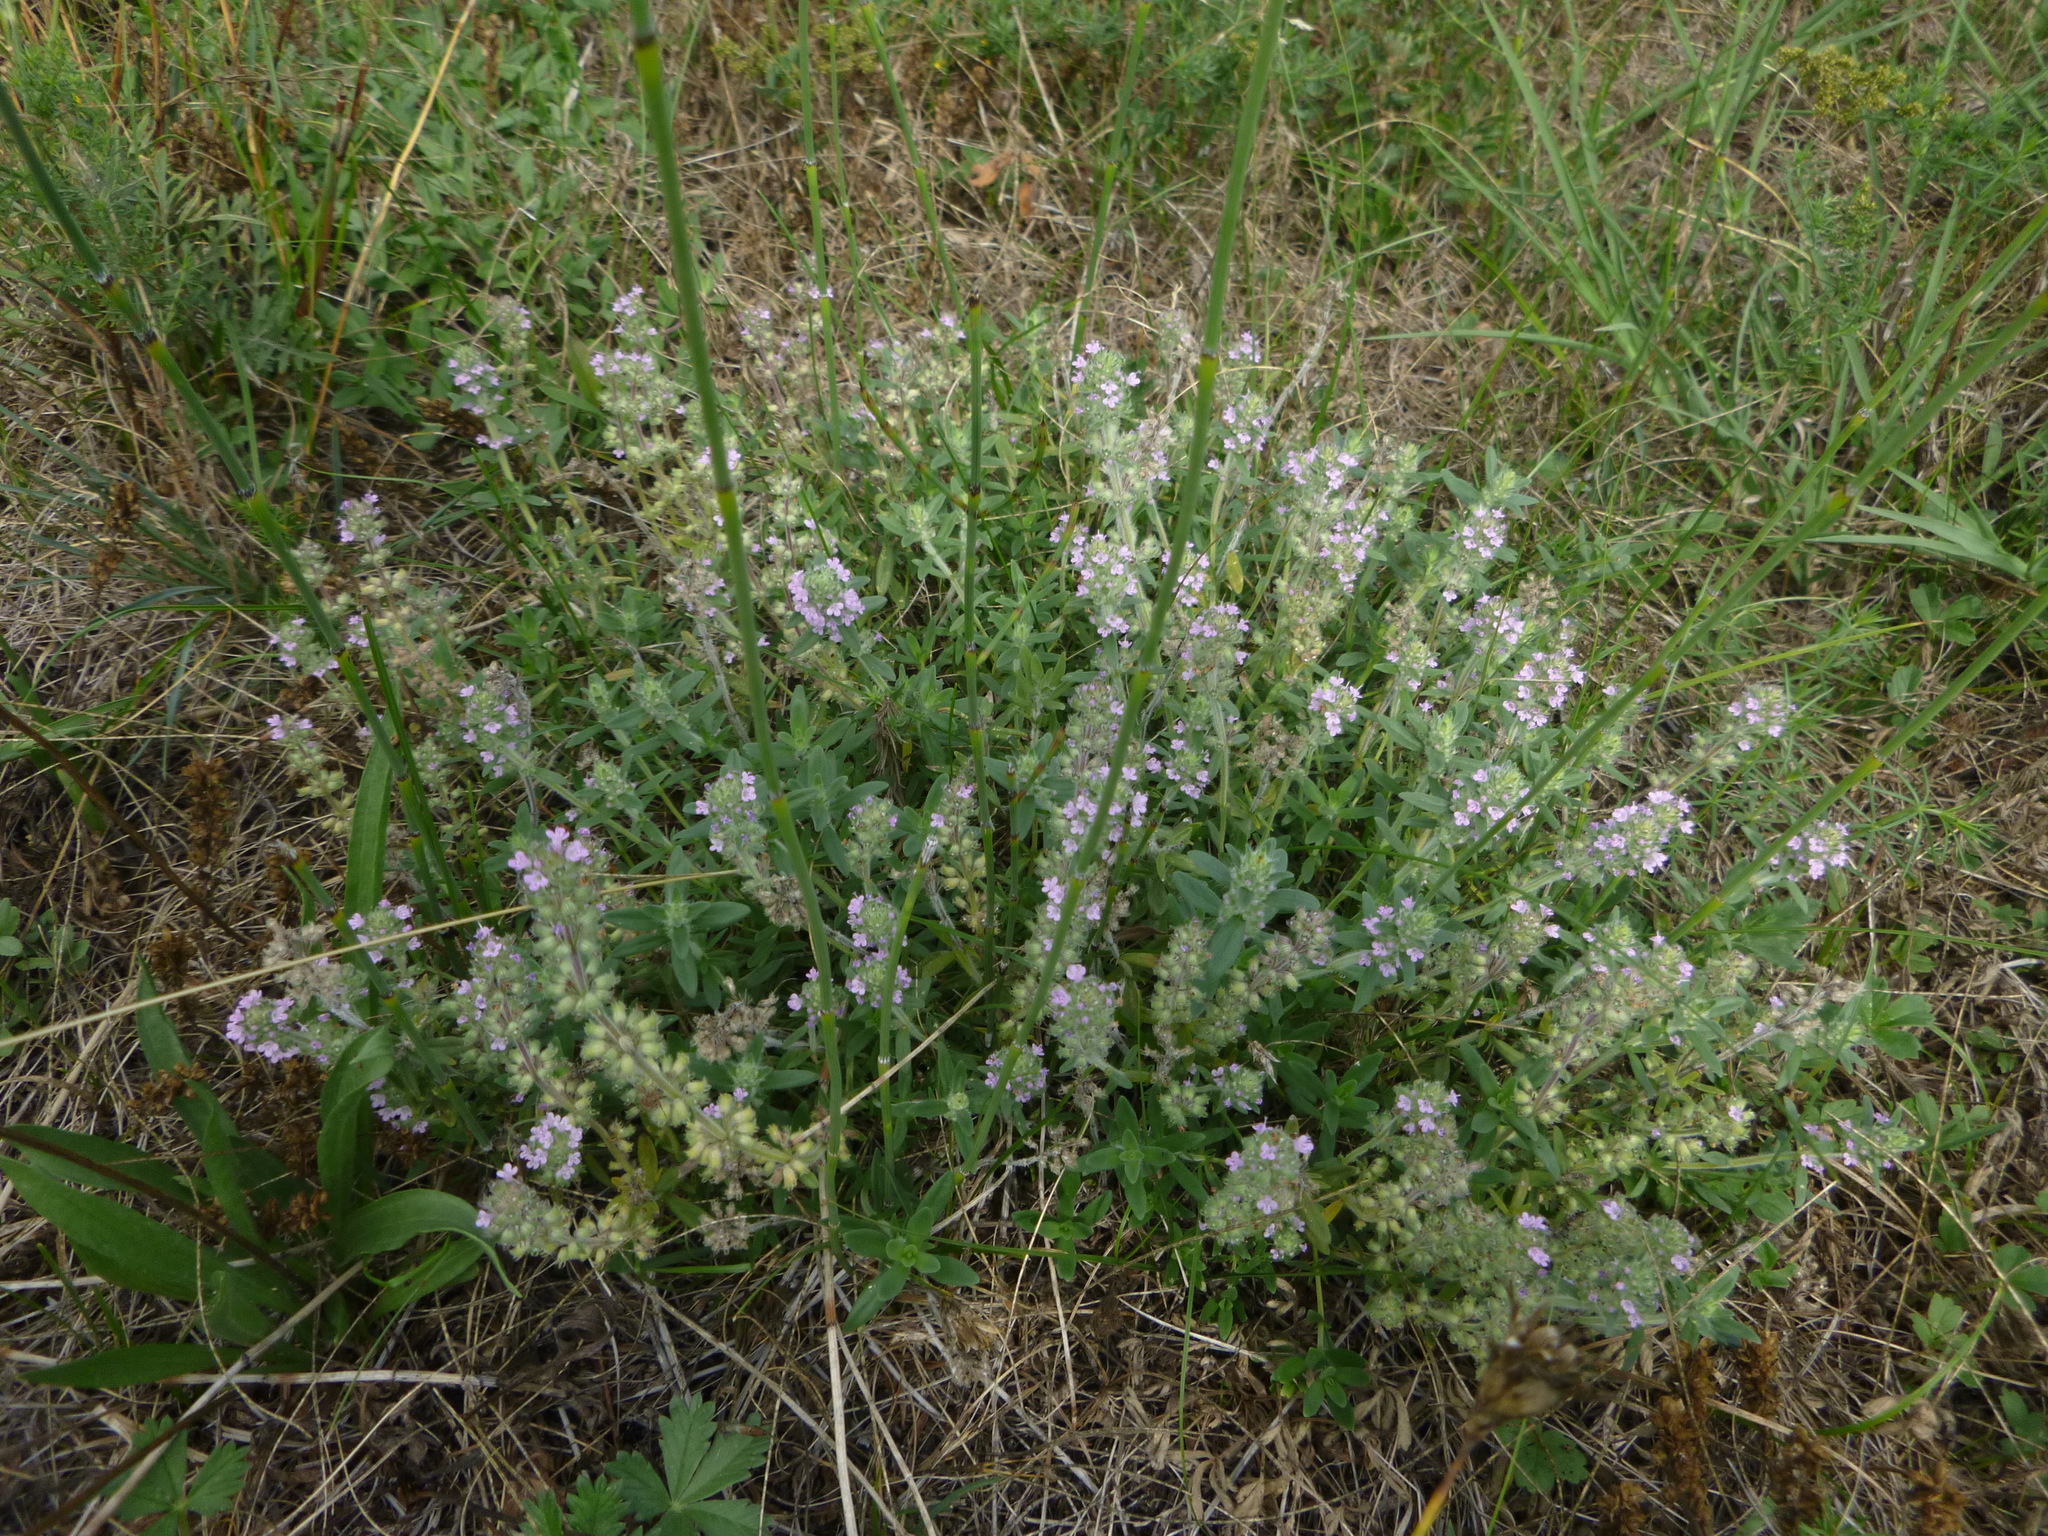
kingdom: Plantae
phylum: Tracheophyta
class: Magnoliopsida
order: Lamiales
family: Lamiaceae
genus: Thymus
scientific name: Thymus kosteleckyanus
